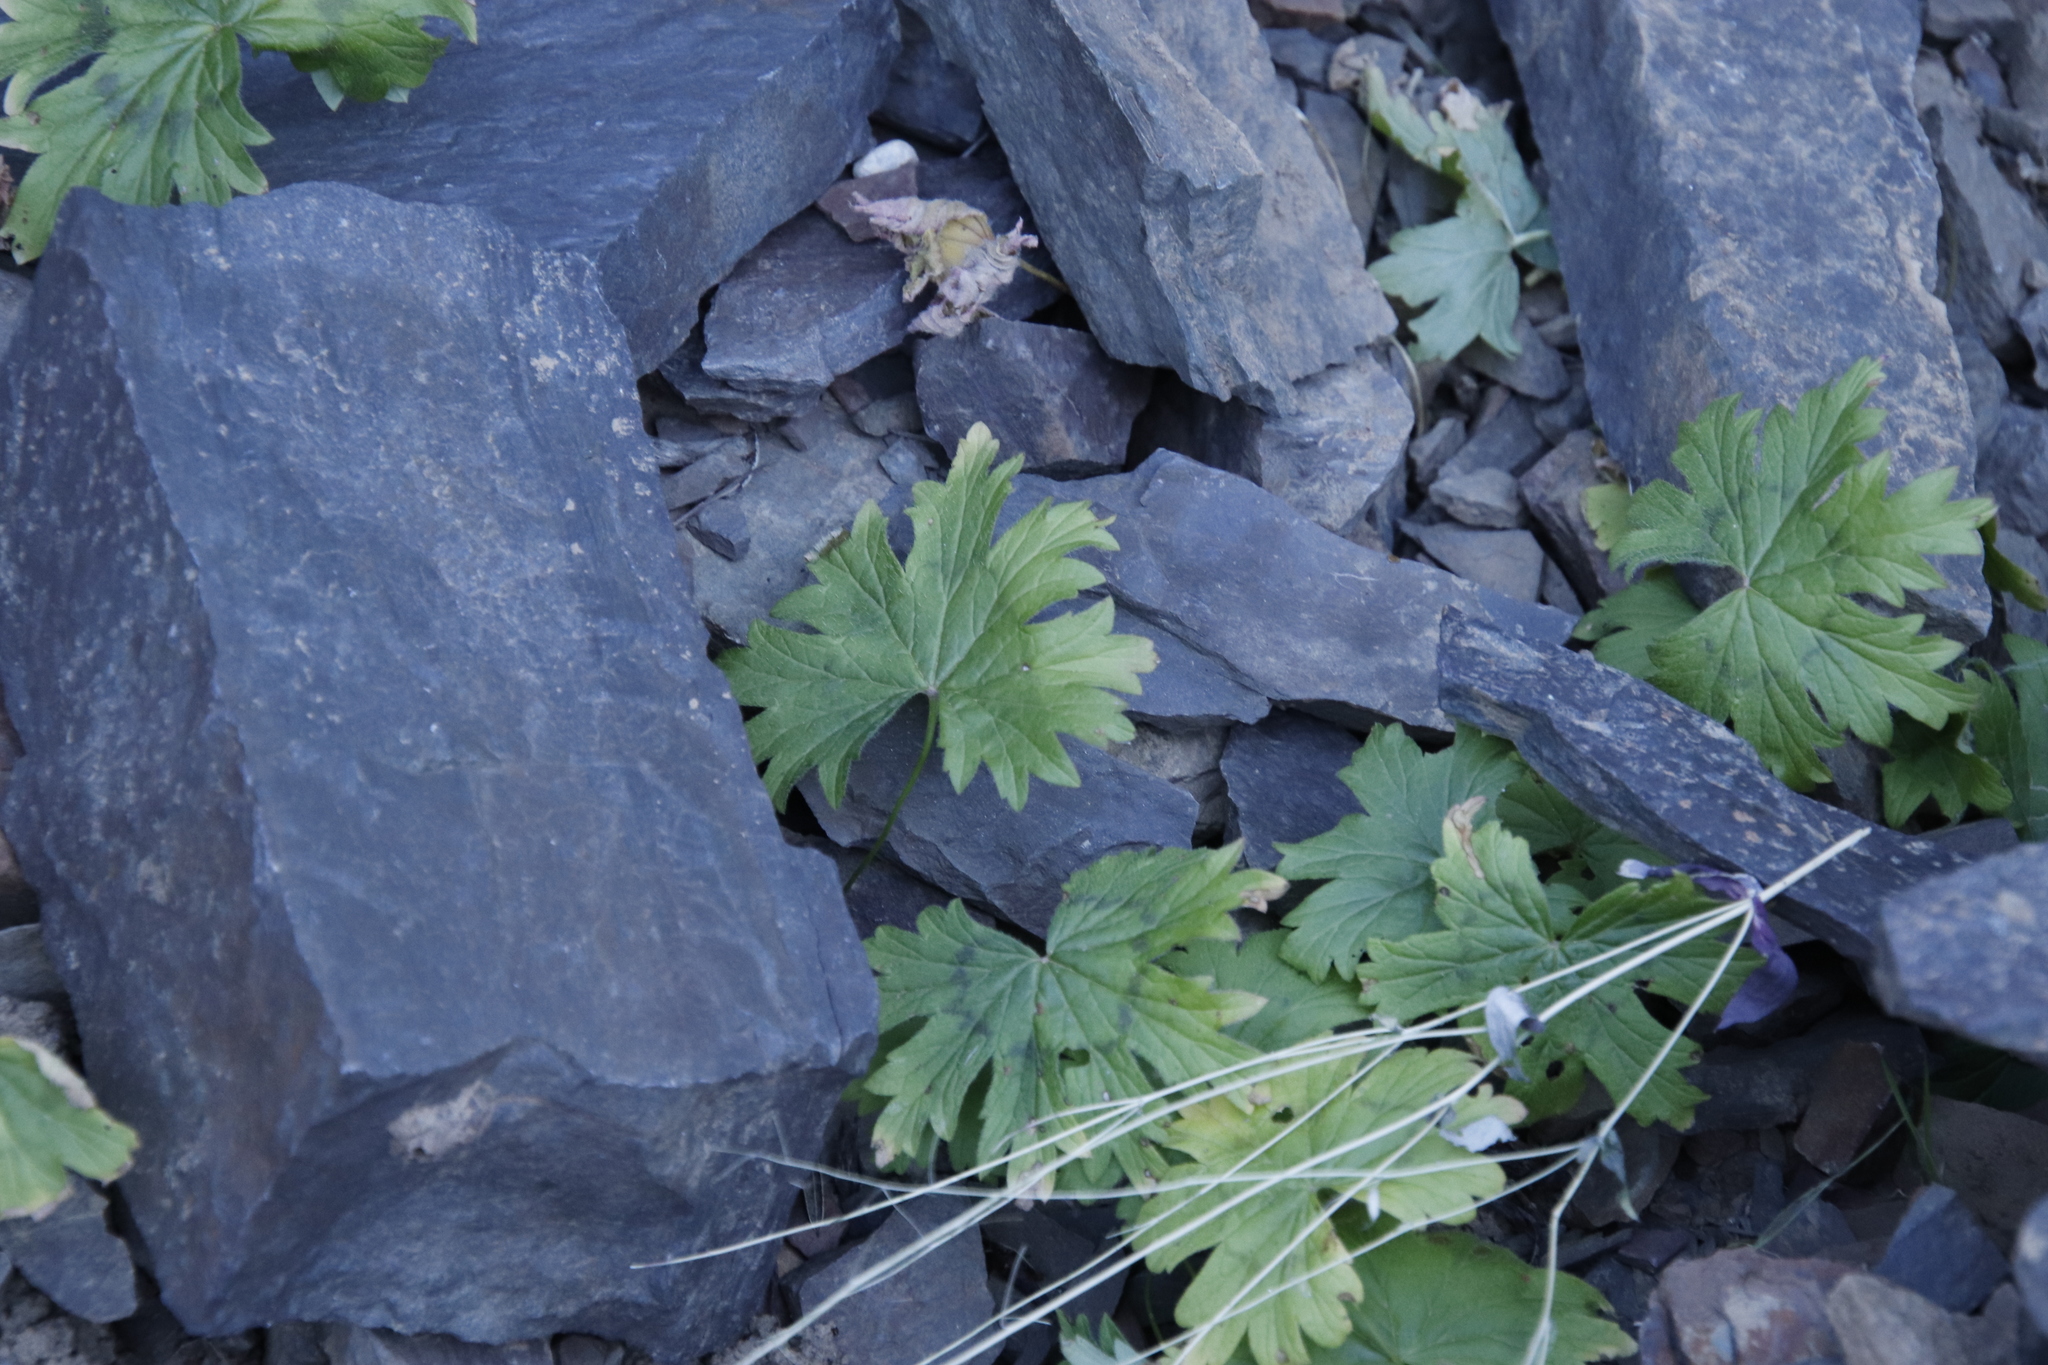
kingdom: Plantae
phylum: Tracheophyta
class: Magnoliopsida
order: Geraniales
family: Geraniaceae
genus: Pelargonium
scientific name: Pelargonium articulatum
